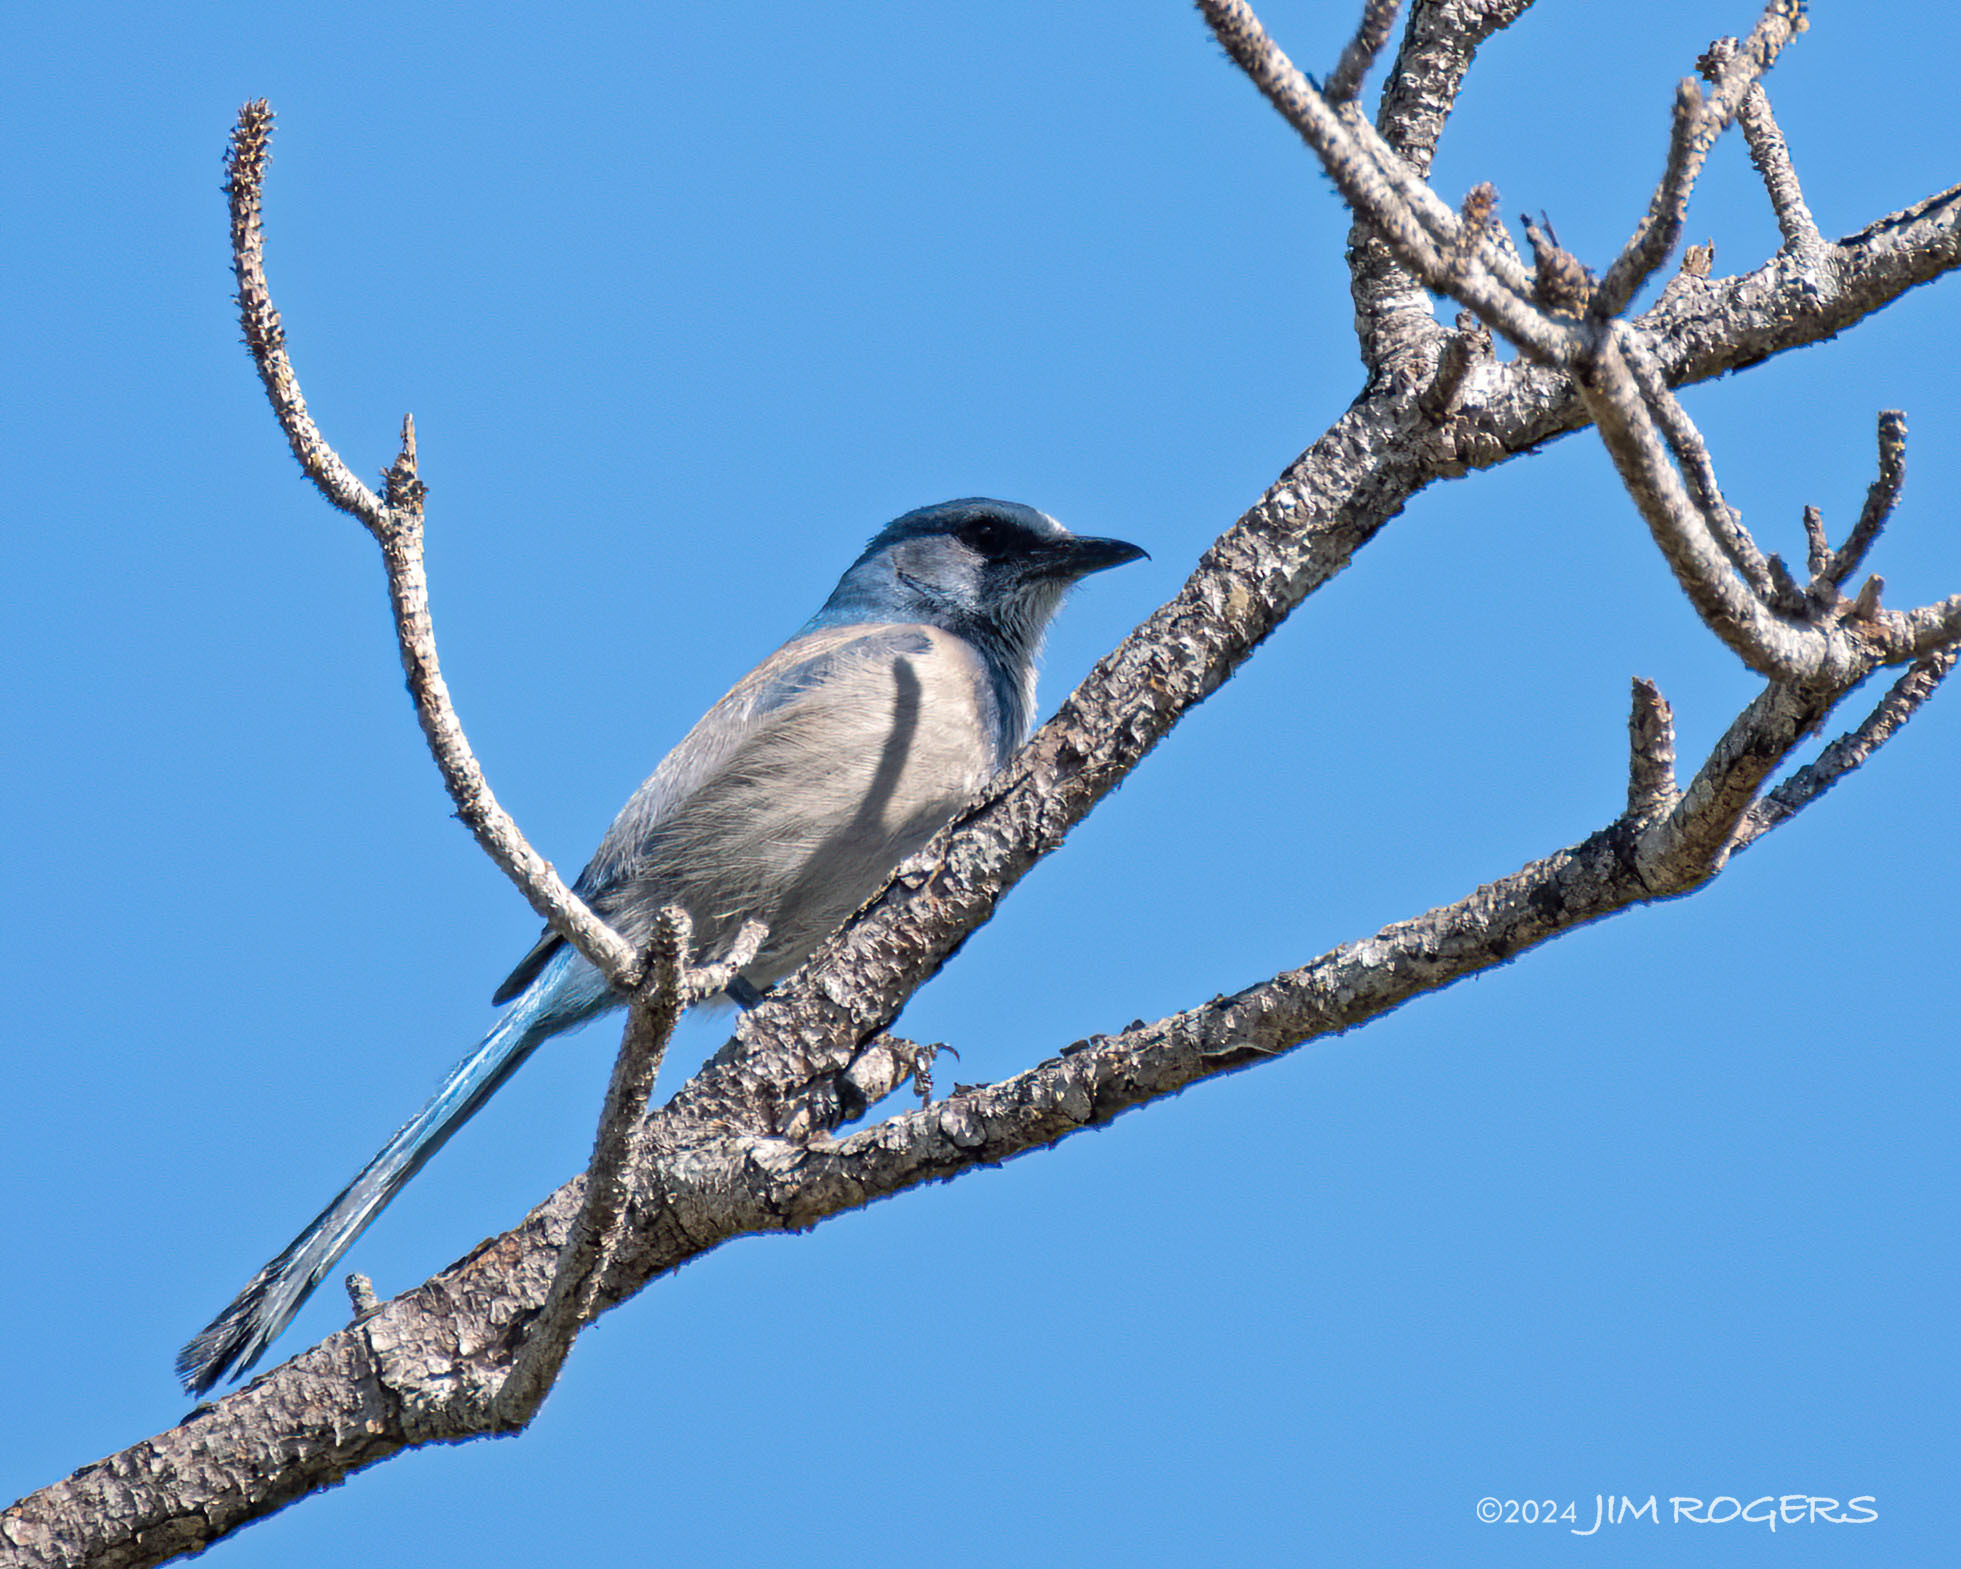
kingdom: Animalia
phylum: Chordata
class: Aves
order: Passeriformes
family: Corvidae
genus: Aphelocoma
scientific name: Aphelocoma coerulescens
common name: Florida scrub jay
